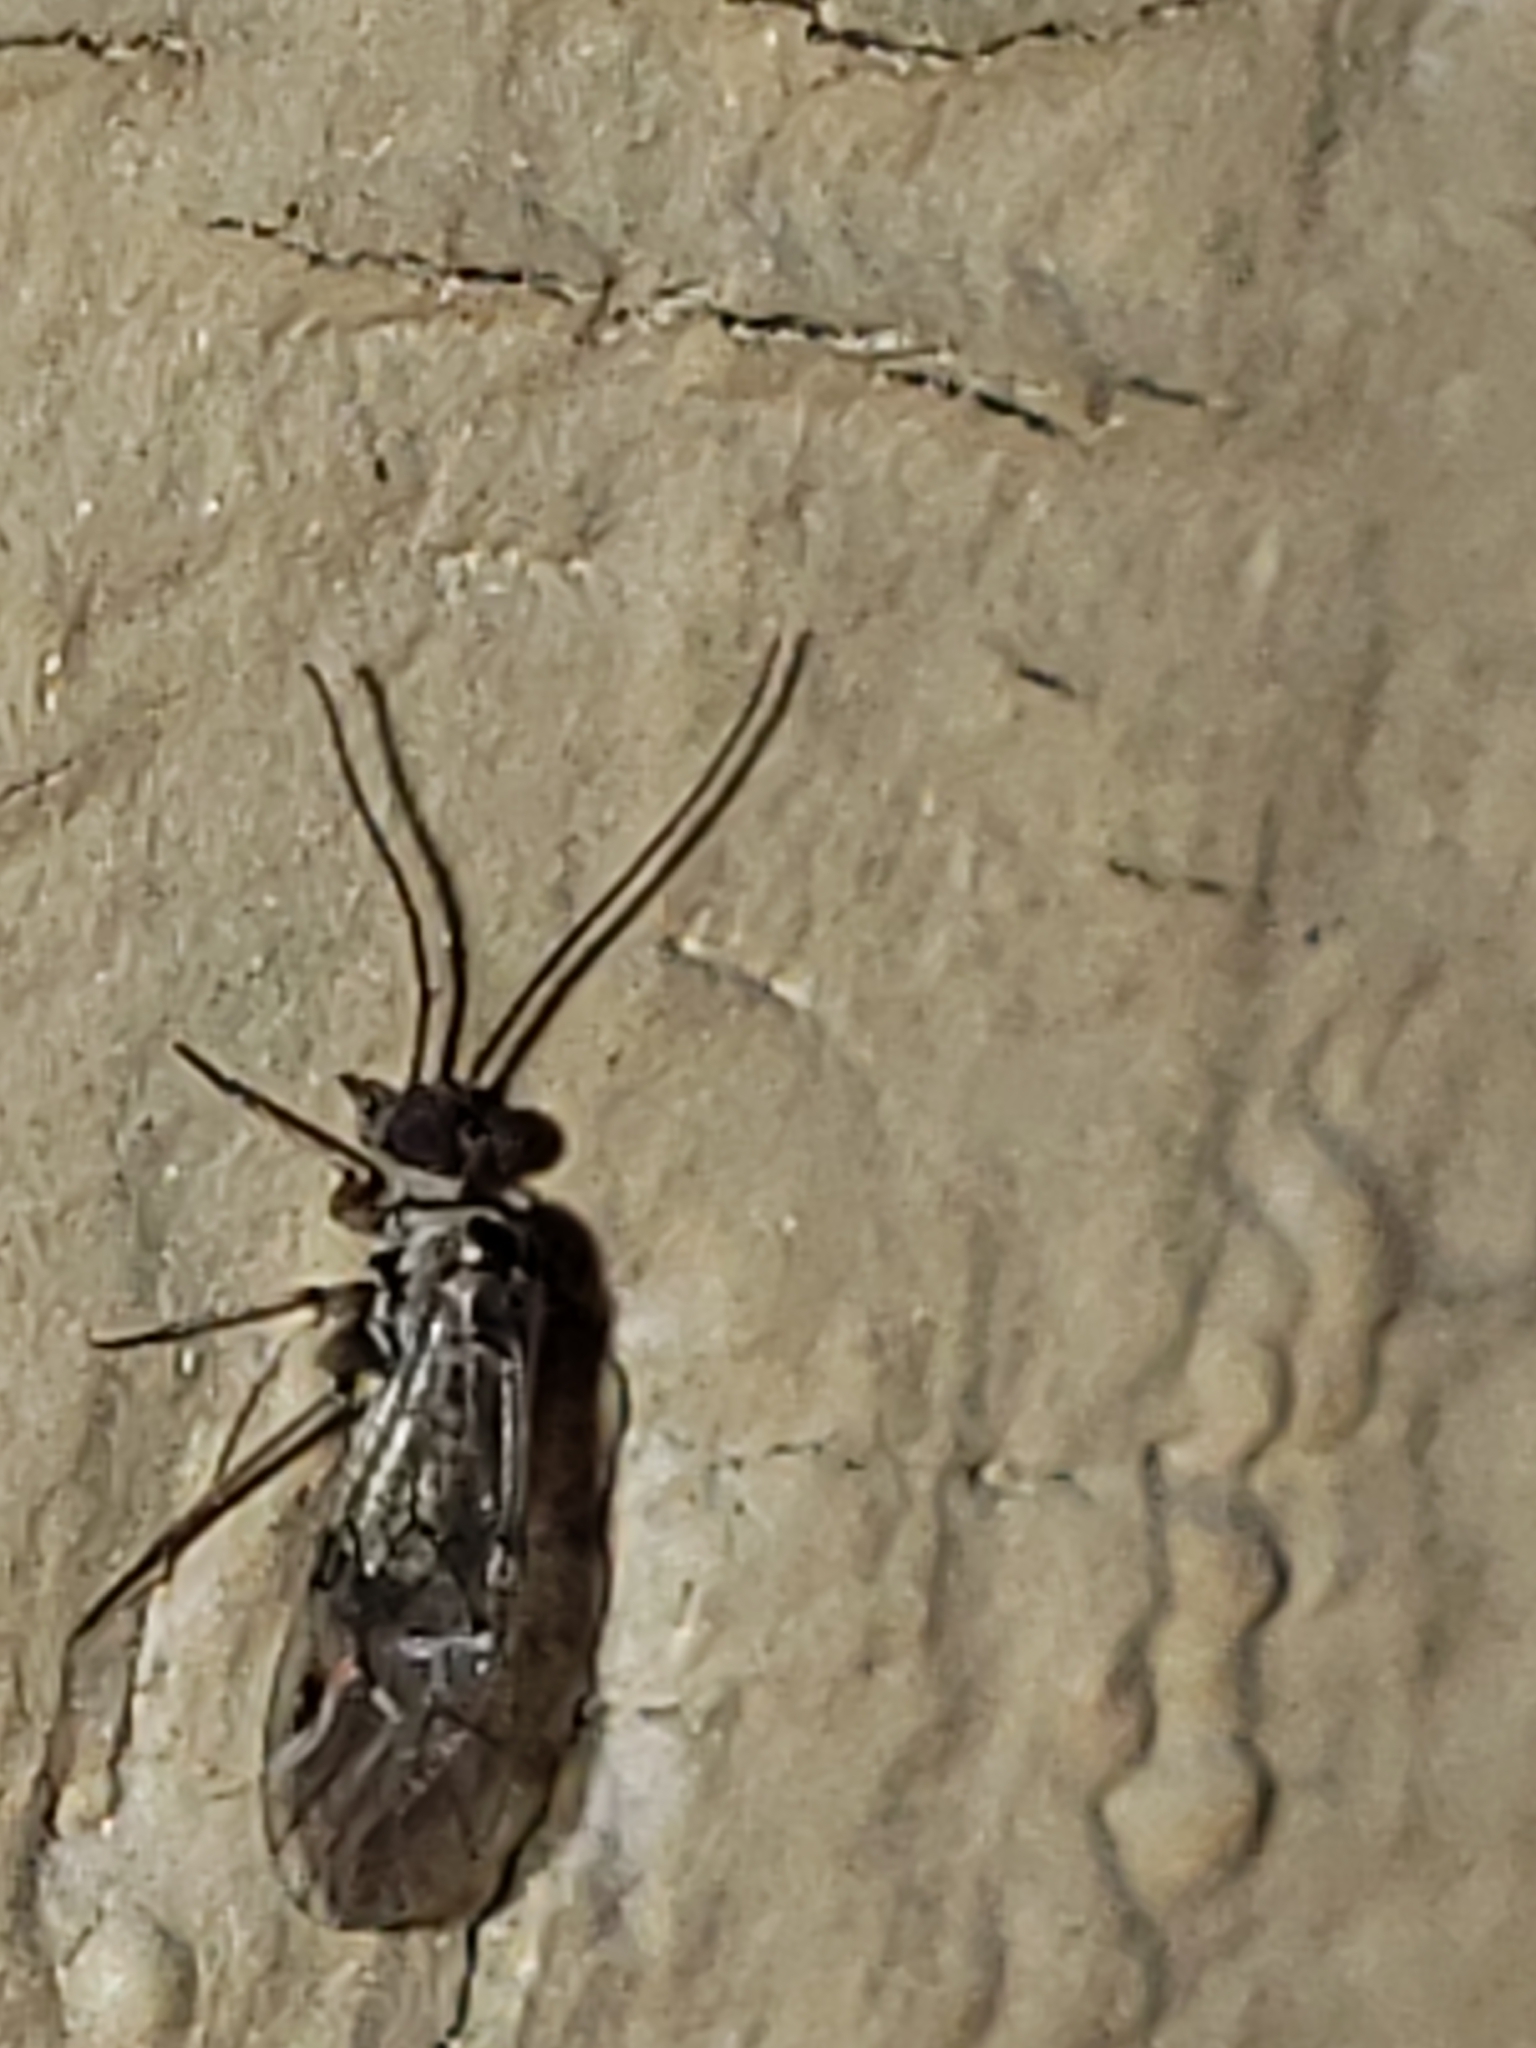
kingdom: Animalia
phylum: Arthropoda
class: Insecta
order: Psocodea
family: Psocidae
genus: Metylophorus
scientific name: Metylophorus novaescotiae
